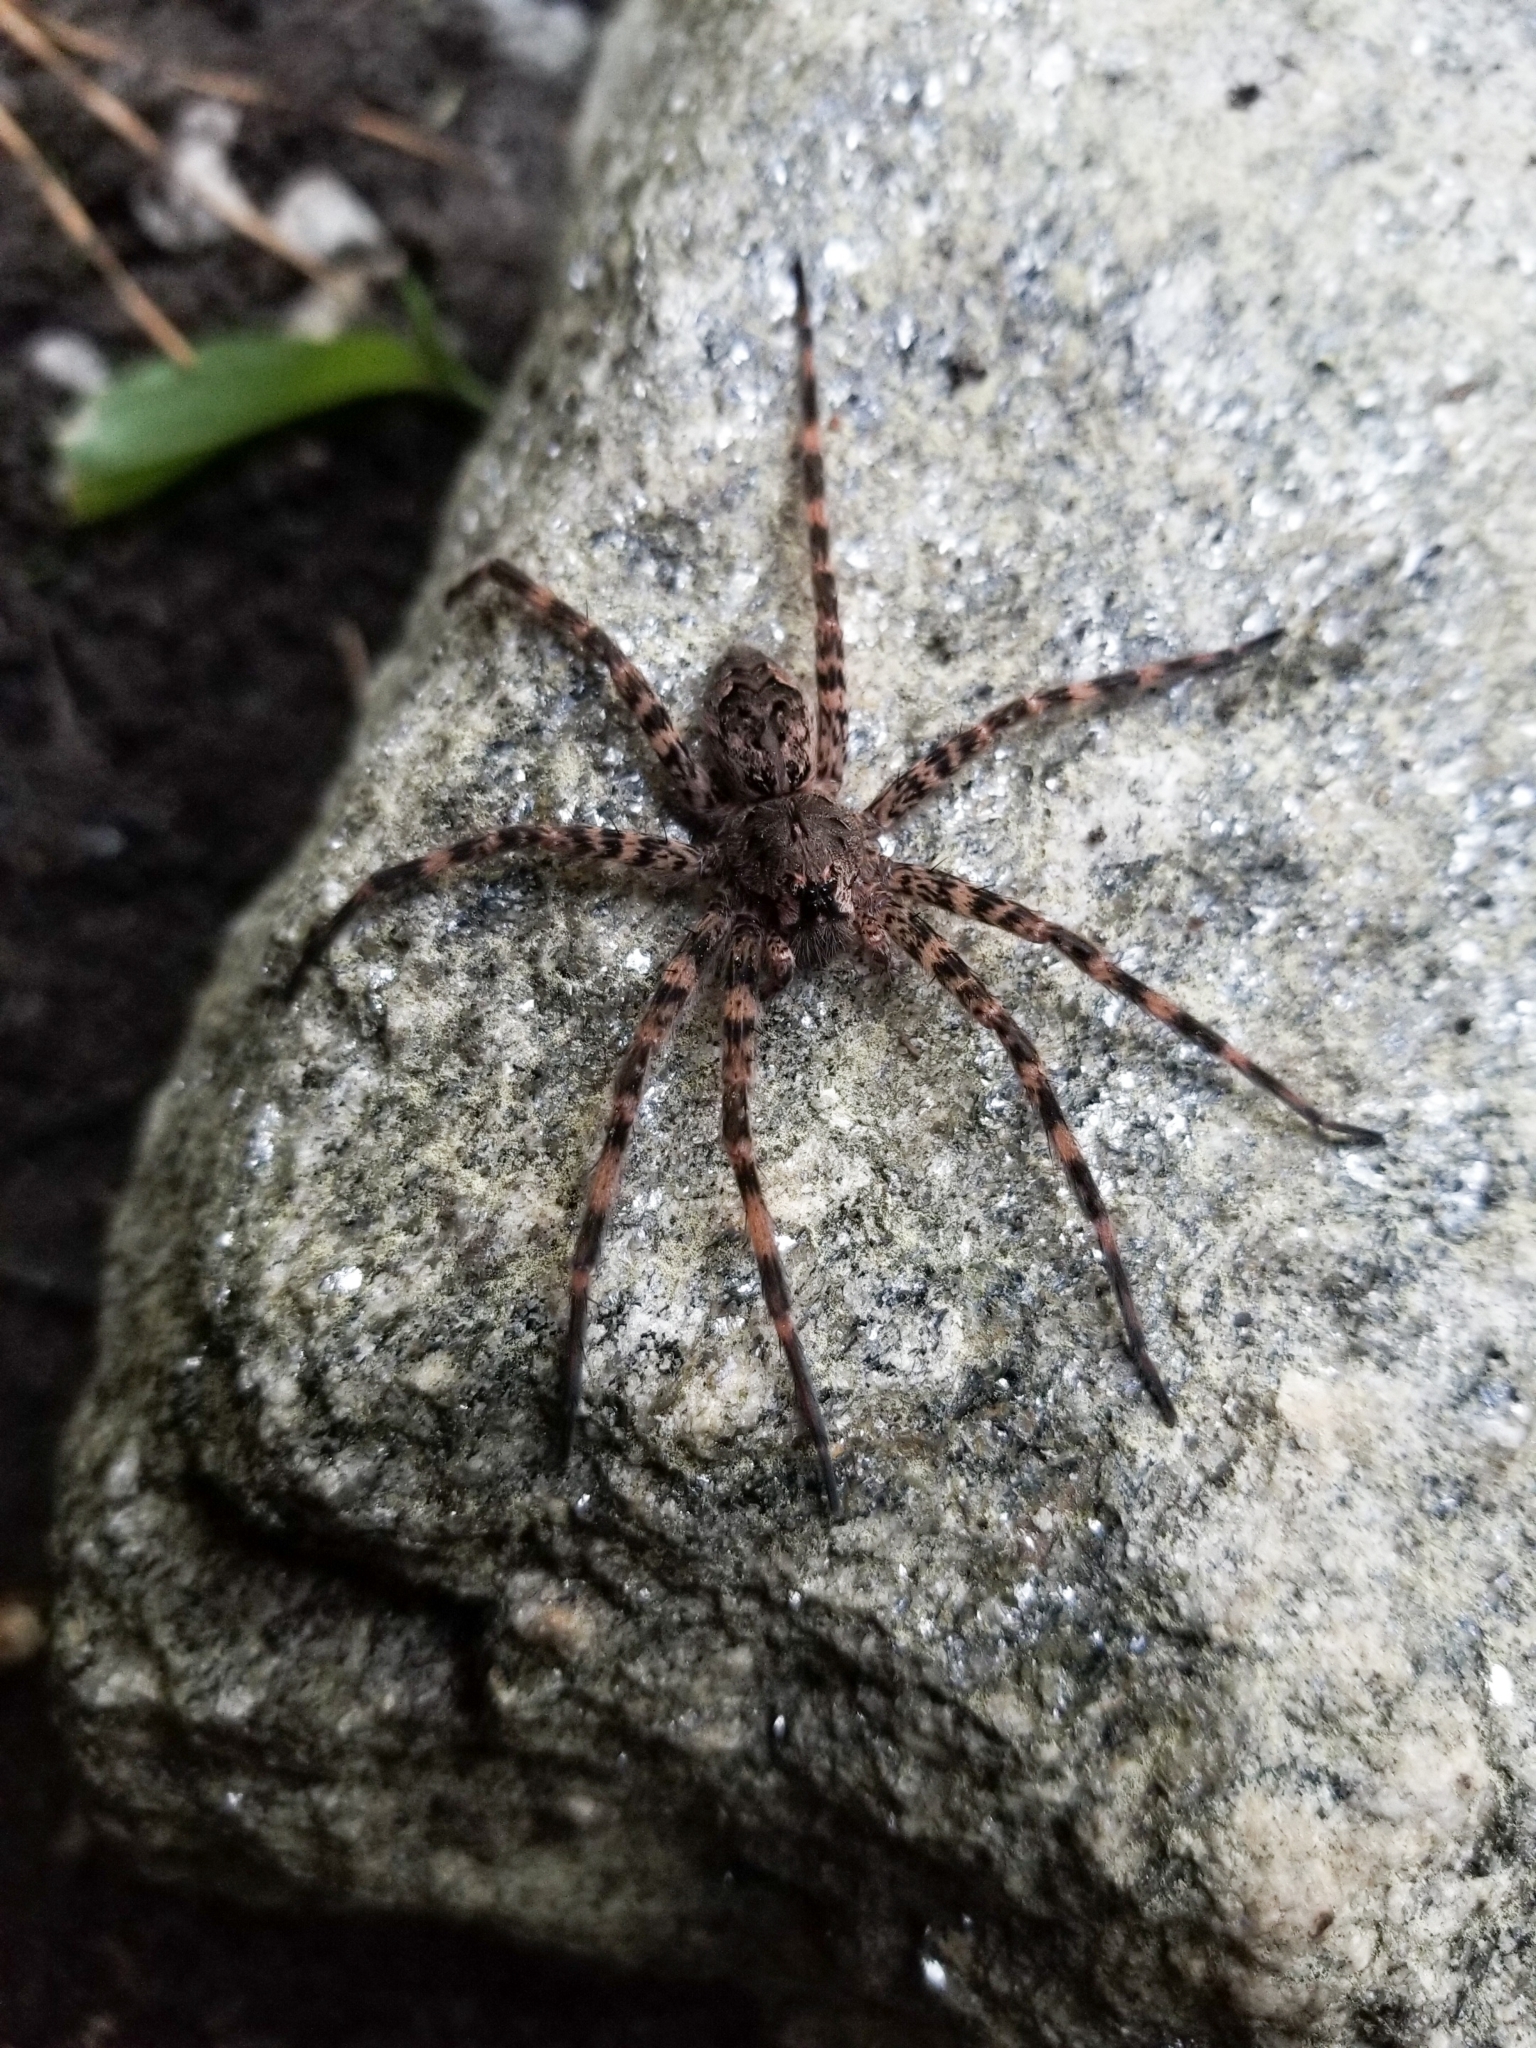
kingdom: Animalia
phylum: Arthropoda
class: Arachnida
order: Araneae
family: Pisauridae
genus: Dolomedes
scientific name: Dolomedes tenebrosus
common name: Dark fishing spider
